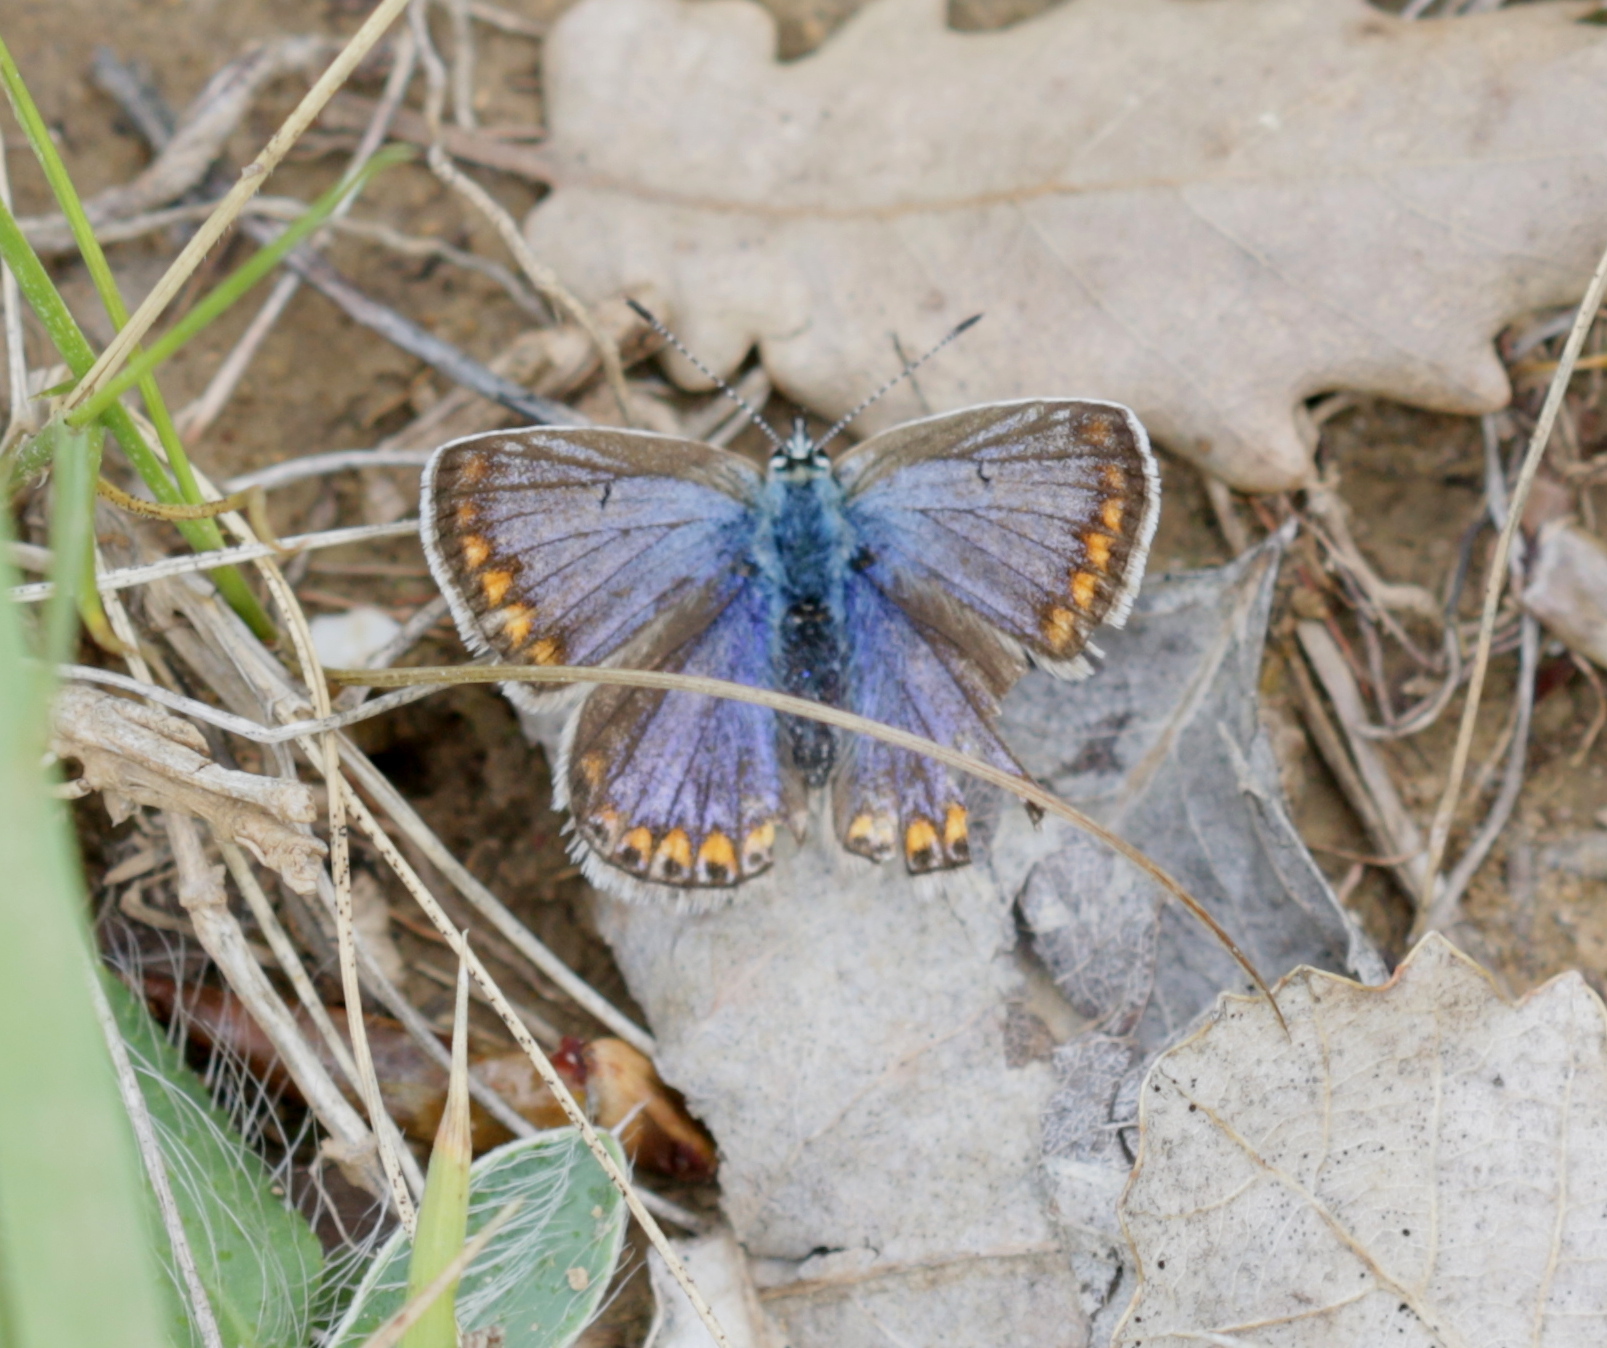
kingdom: Animalia
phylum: Arthropoda
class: Insecta
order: Lepidoptera
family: Lycaenidae
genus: Polyommatus
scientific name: Polyommatus icarus
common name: Common blue
